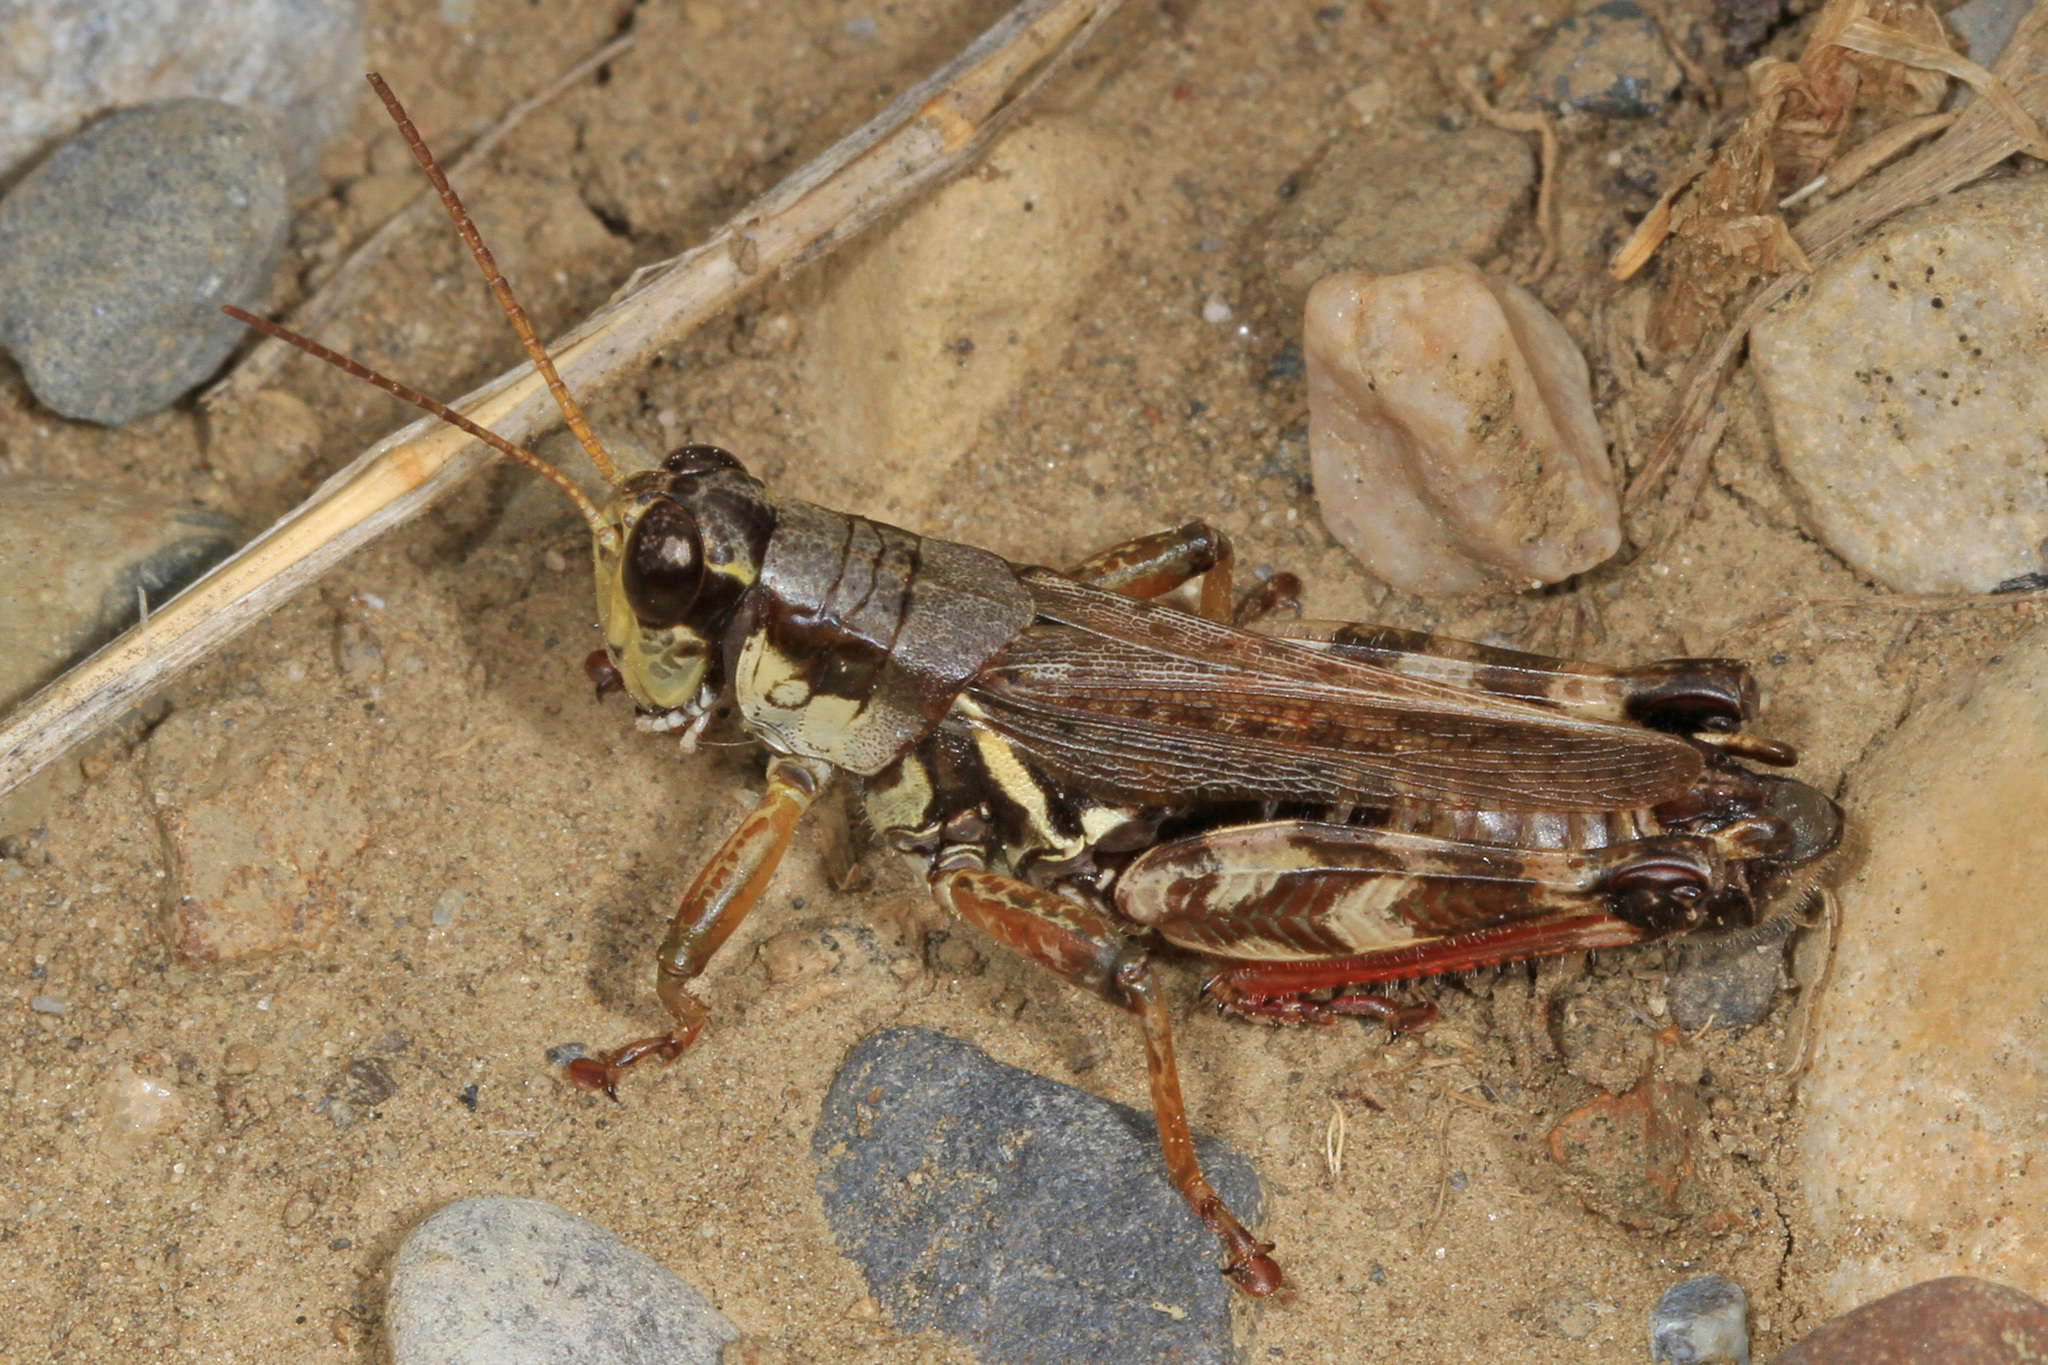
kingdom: Animalia
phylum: Arthropoda
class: Insecta
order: Orthoptera
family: Acrididae
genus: Melanoplus
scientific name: Melanoplus fasciatus
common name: Huckleberry locust
